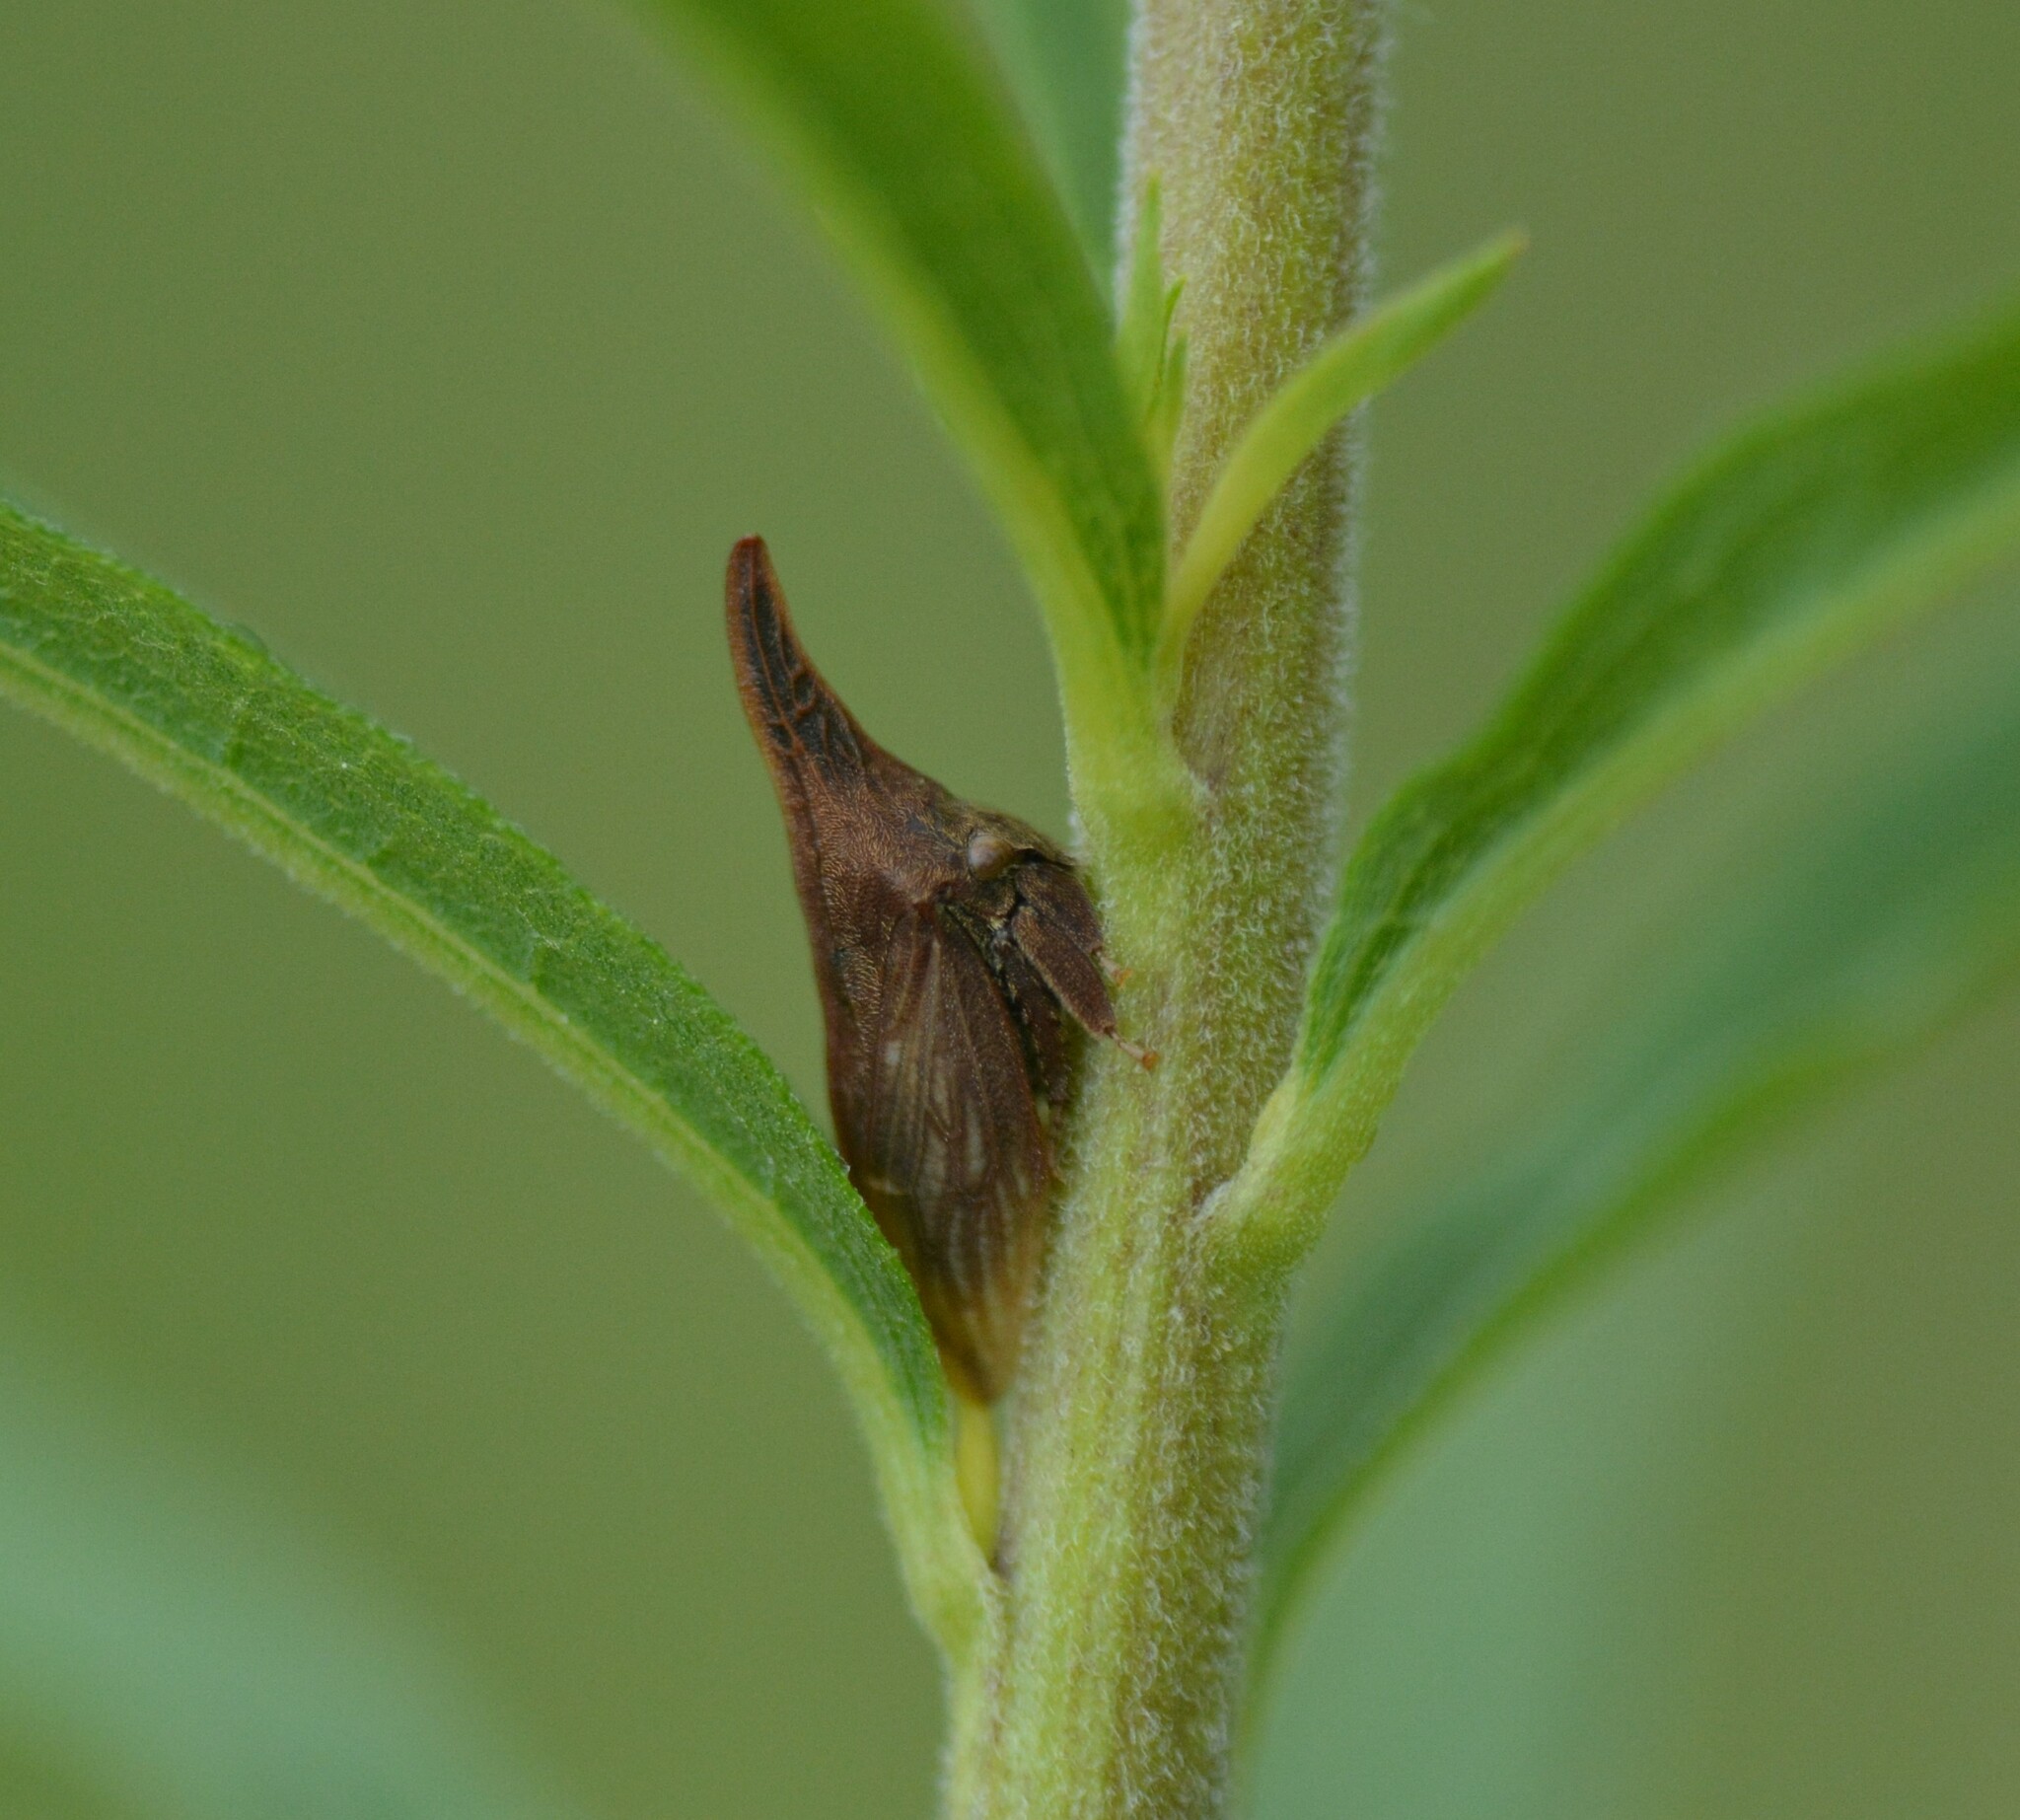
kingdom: Animalia
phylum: Arthropoda
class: Insecta
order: Hemiptera
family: Membracidae
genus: Enchenopa
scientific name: Enchenopa latipes
